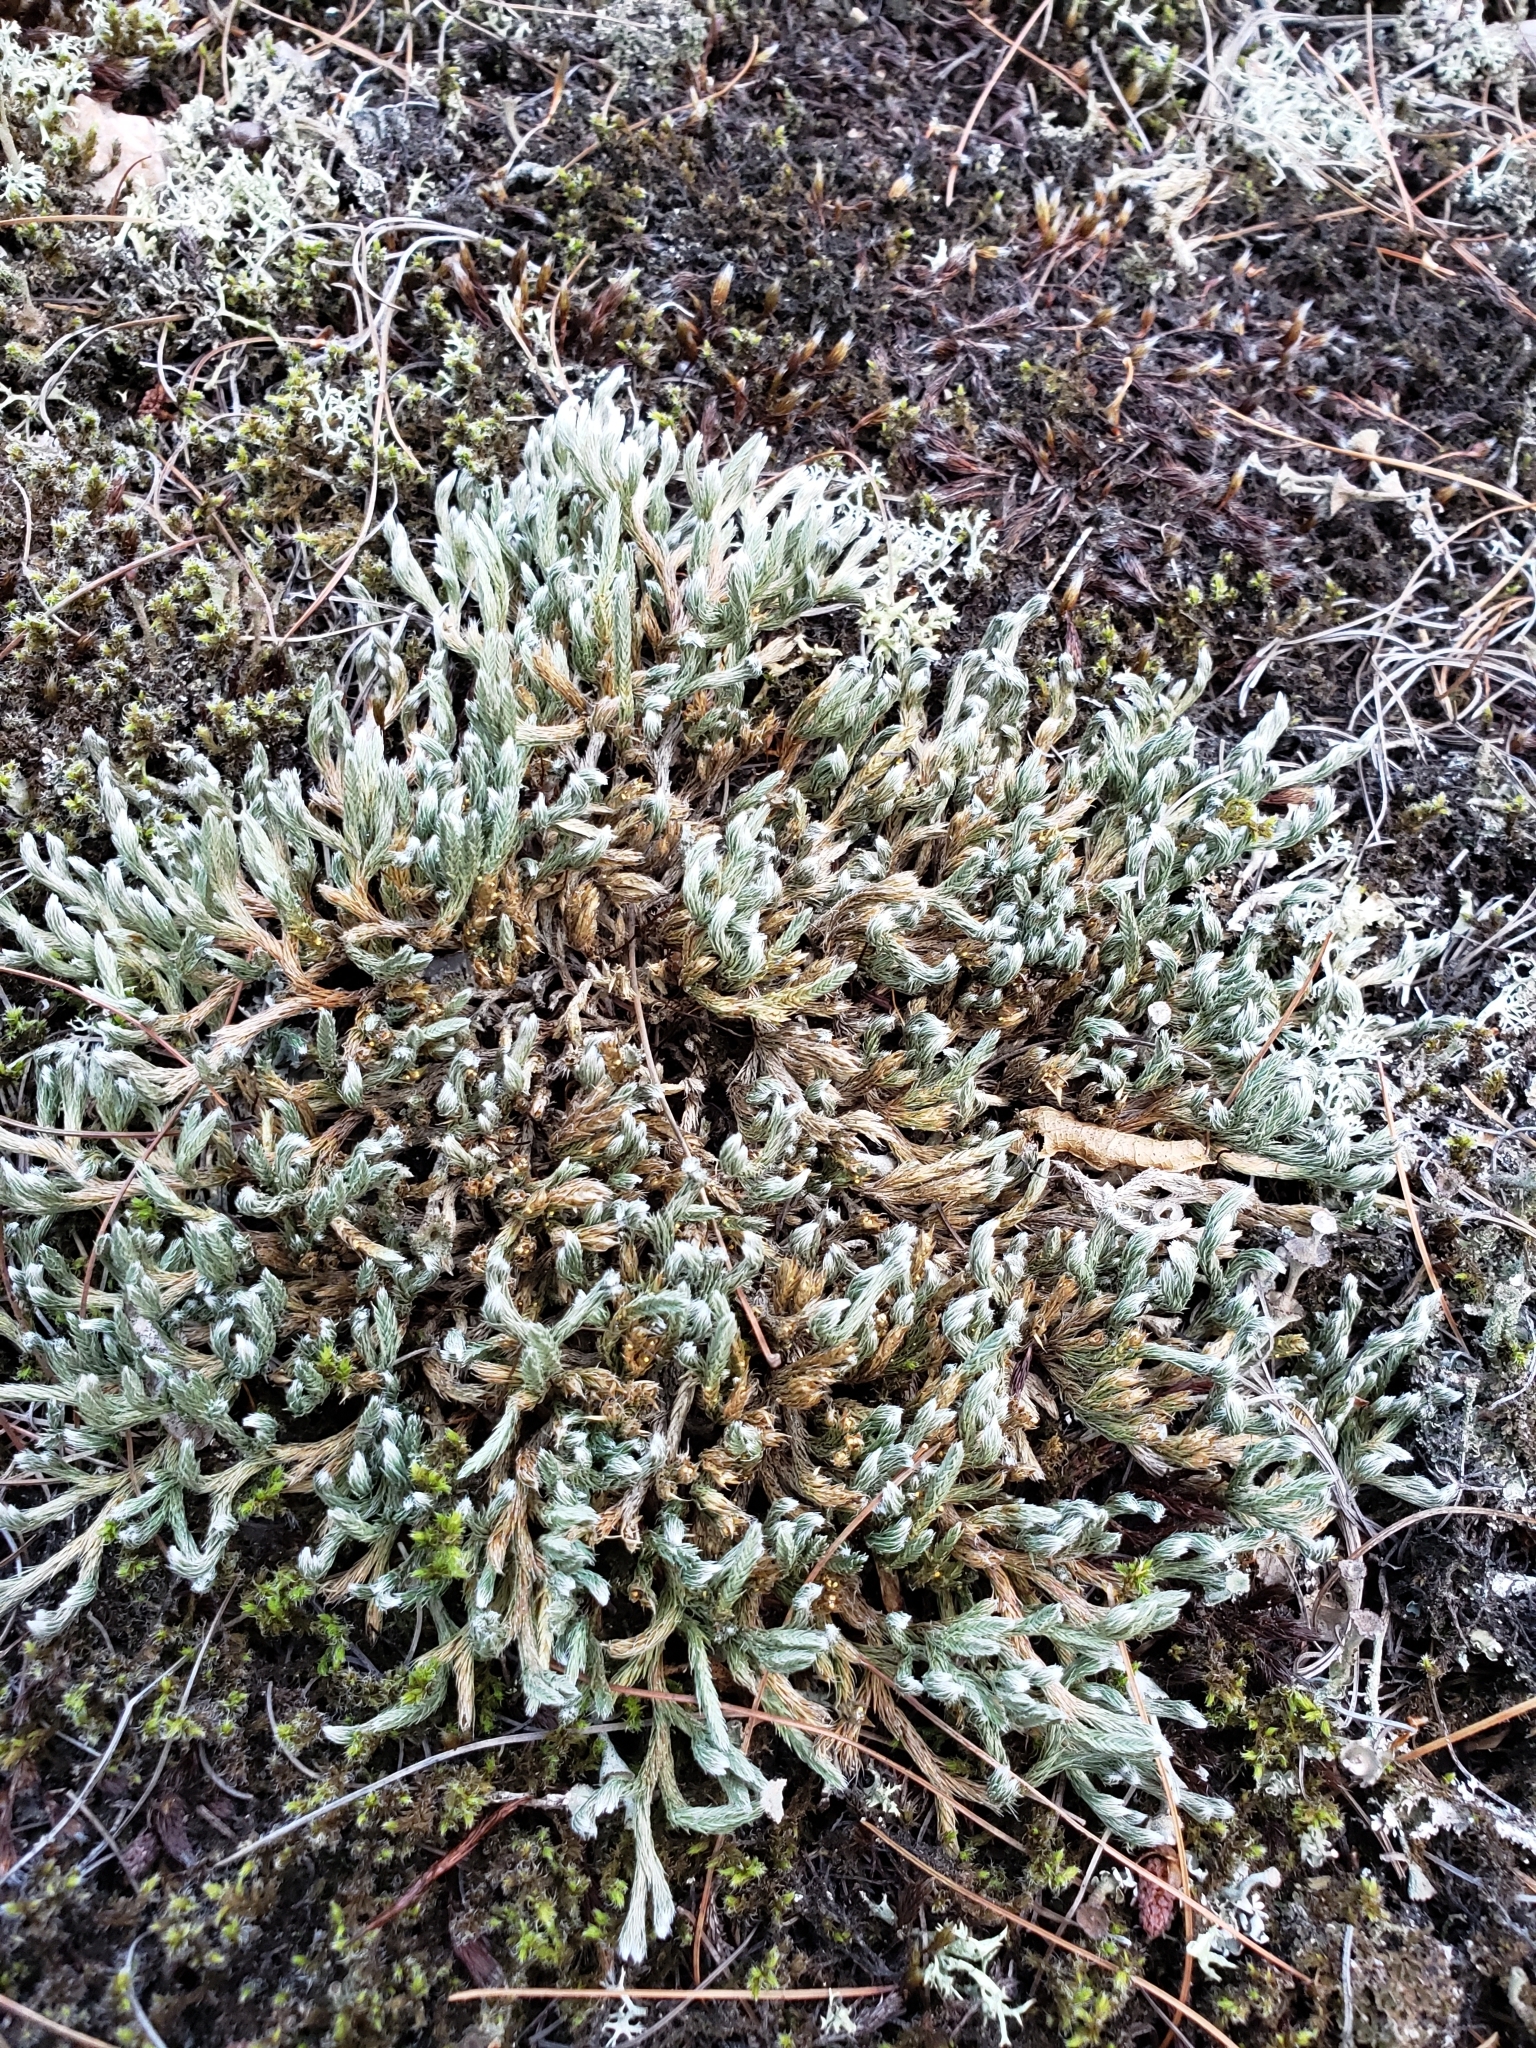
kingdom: Plantae
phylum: Tracheophyta
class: Lycopodiopsida
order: Selaginellales
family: Selaginellaceae
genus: Selaginella
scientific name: Selaginella rupestris
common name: Dwarf spikemoss
